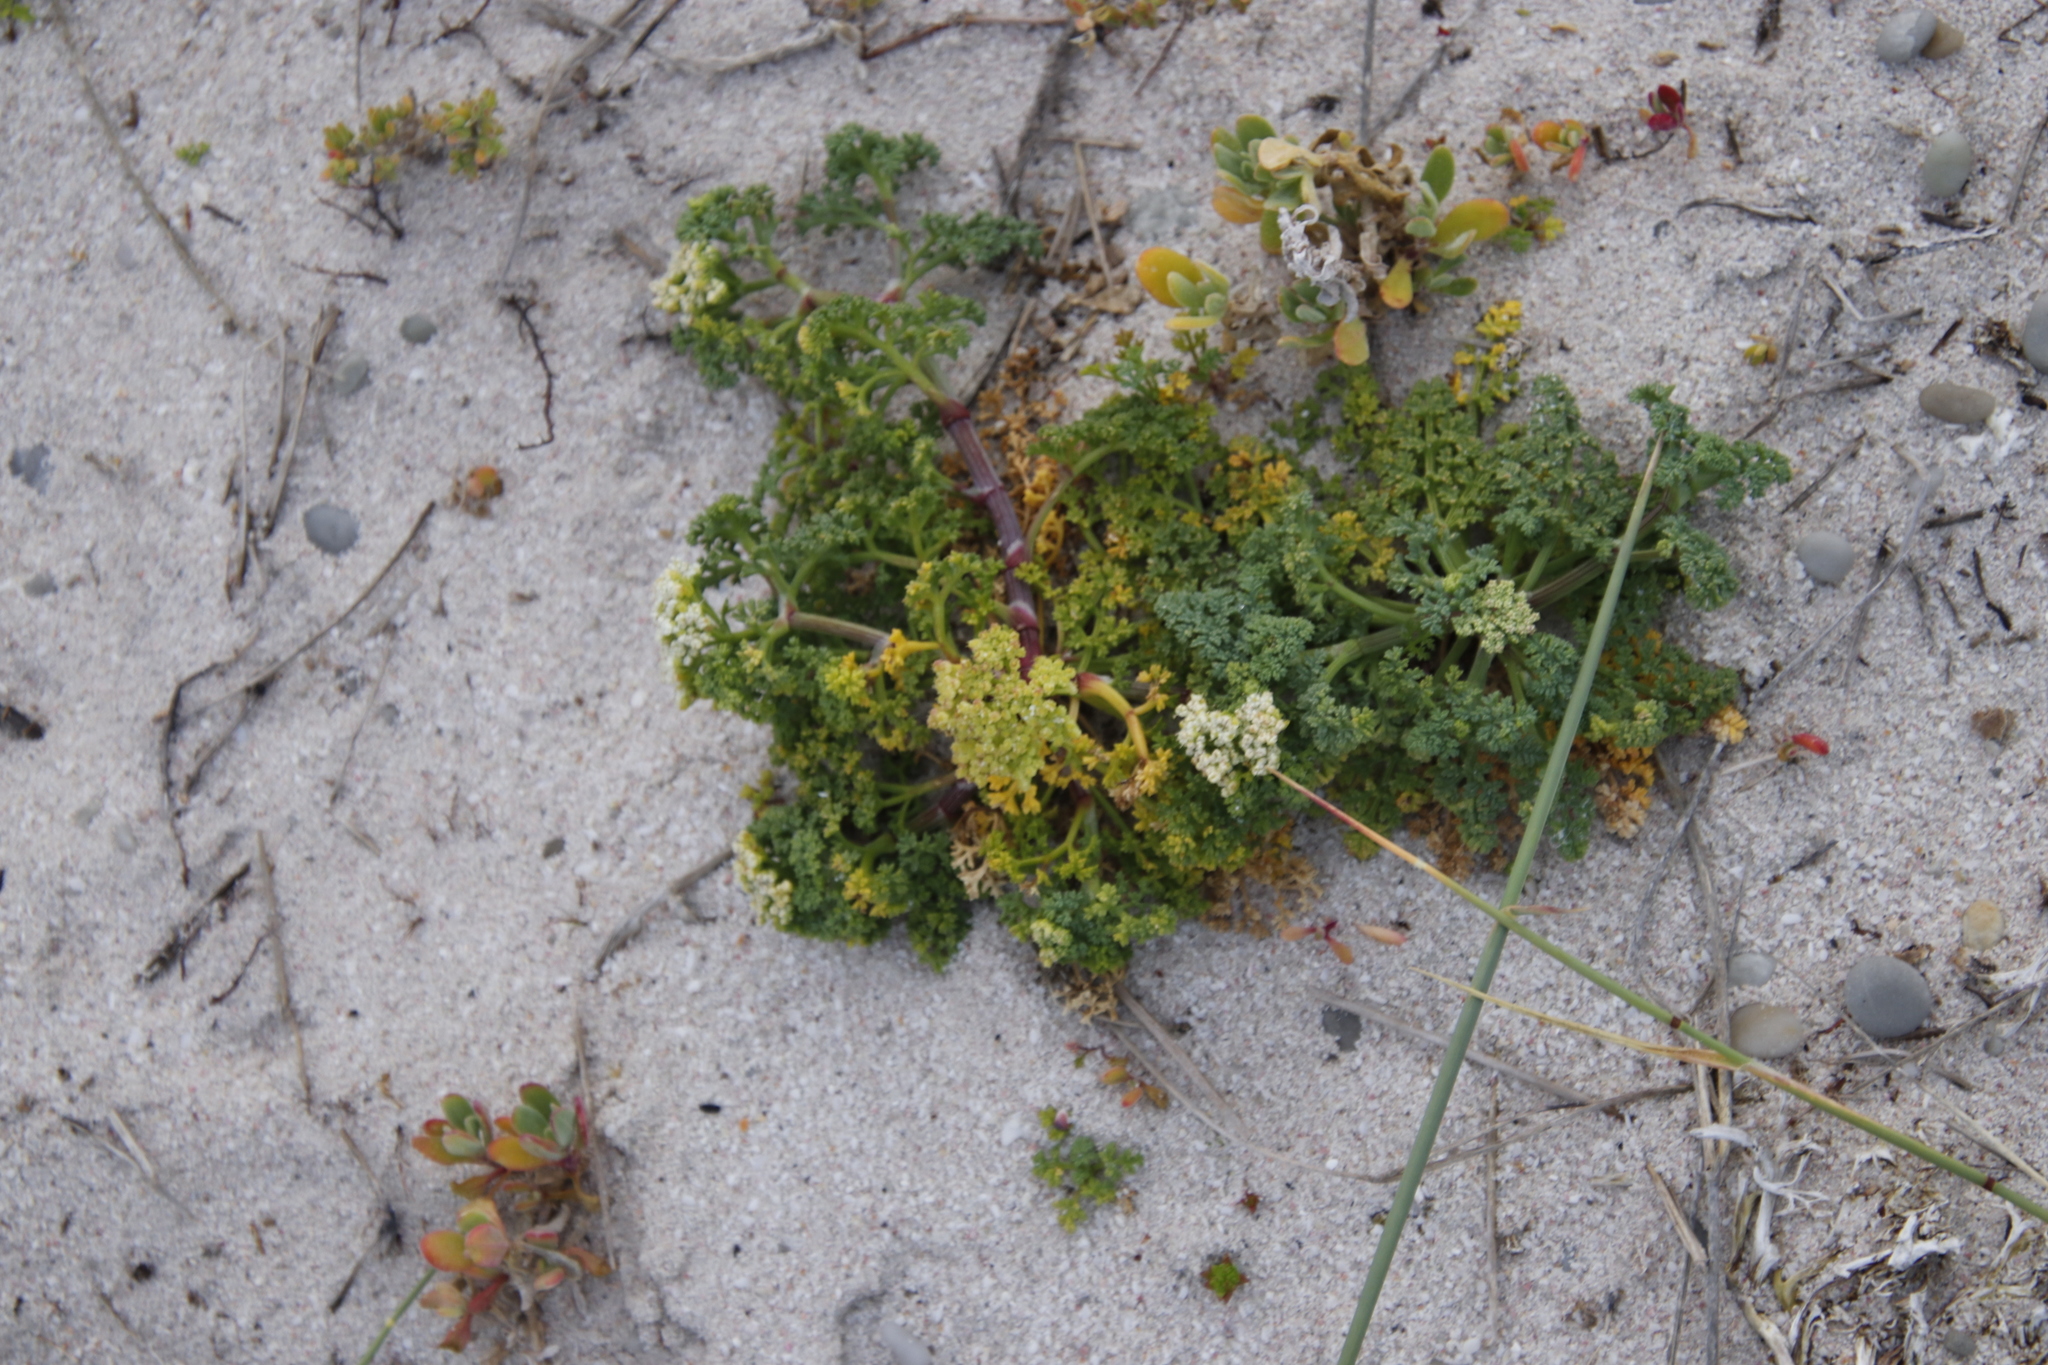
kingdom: Plantae
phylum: Tracheophyta
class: Magnoliopsida
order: Apiales
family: Apiaceae
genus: Dasispermum
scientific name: Dasispermum suffruticosum
